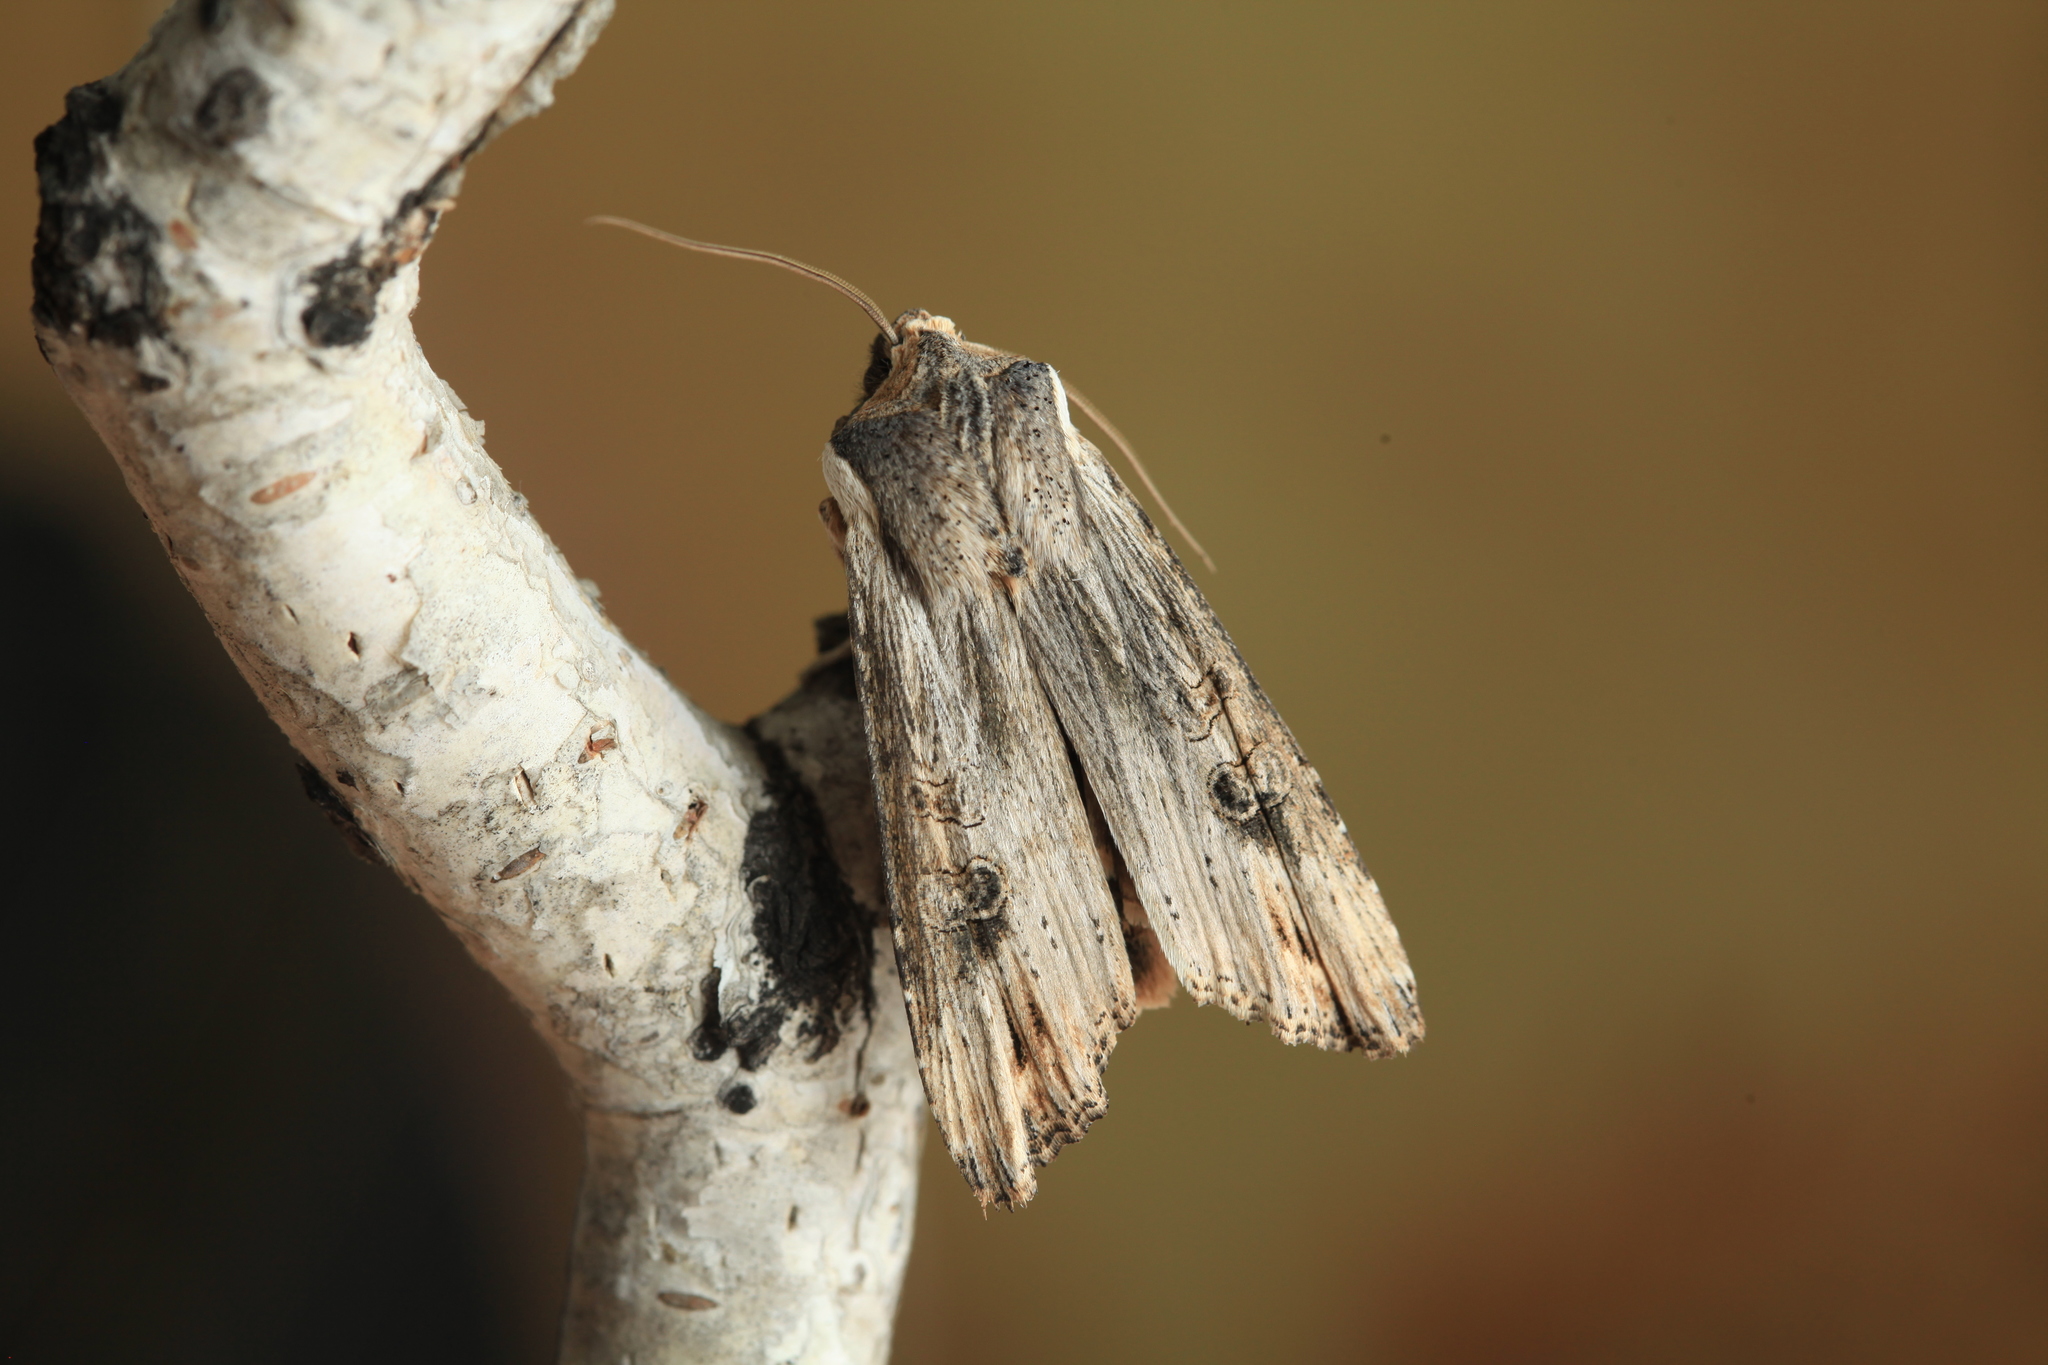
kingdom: Animalia
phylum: Arthropoda
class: Insecta
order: Lepidoptera
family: Noctuidae
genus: Xylena
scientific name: Xylena exsoleta
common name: Sword-grass
